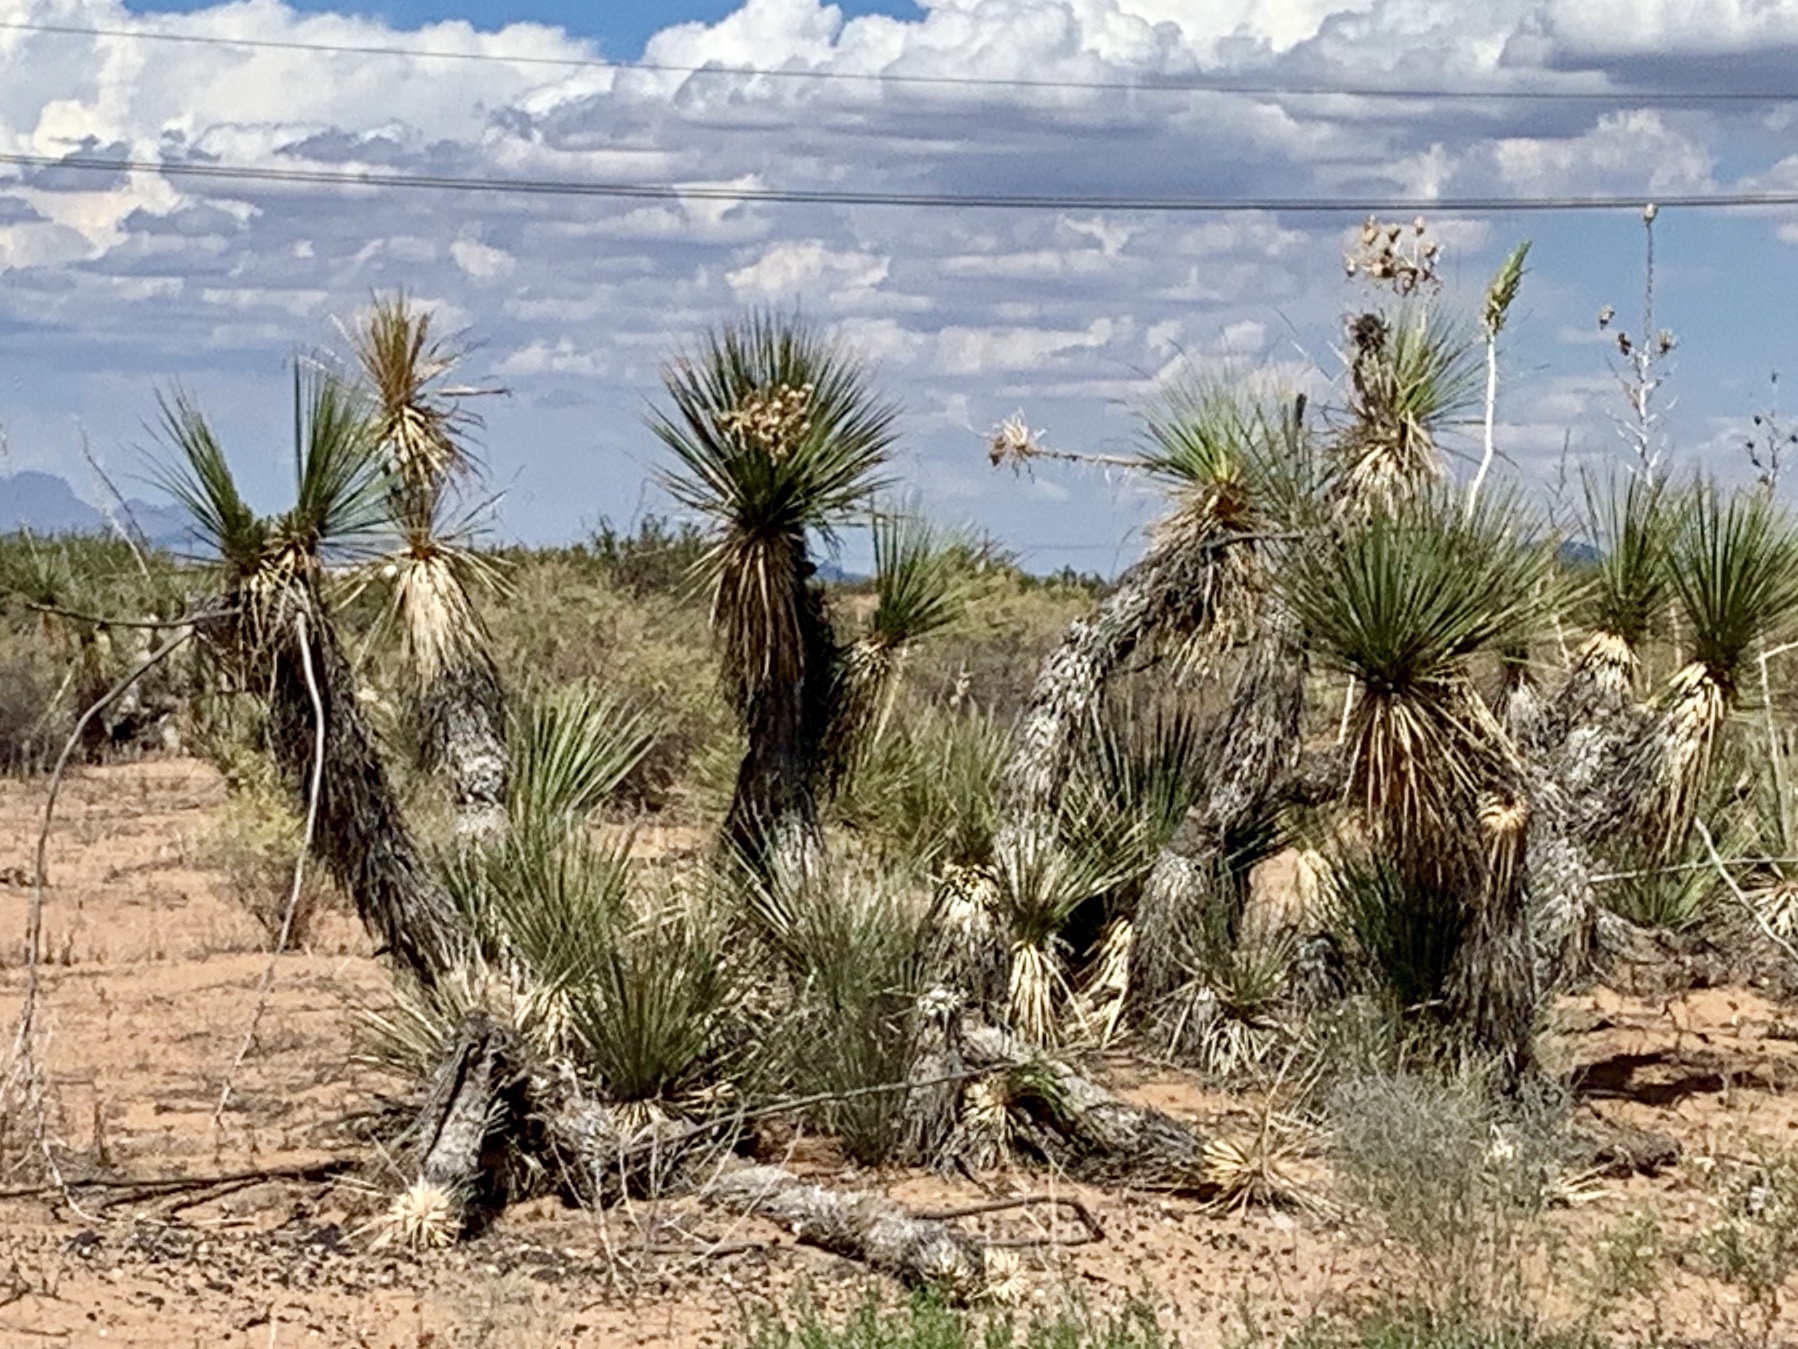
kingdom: Plantae
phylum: Tracheophyta
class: Liliopsida
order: Asparagales
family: Asparagaceae
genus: Yucca
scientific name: Yucca elata
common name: Palmella
